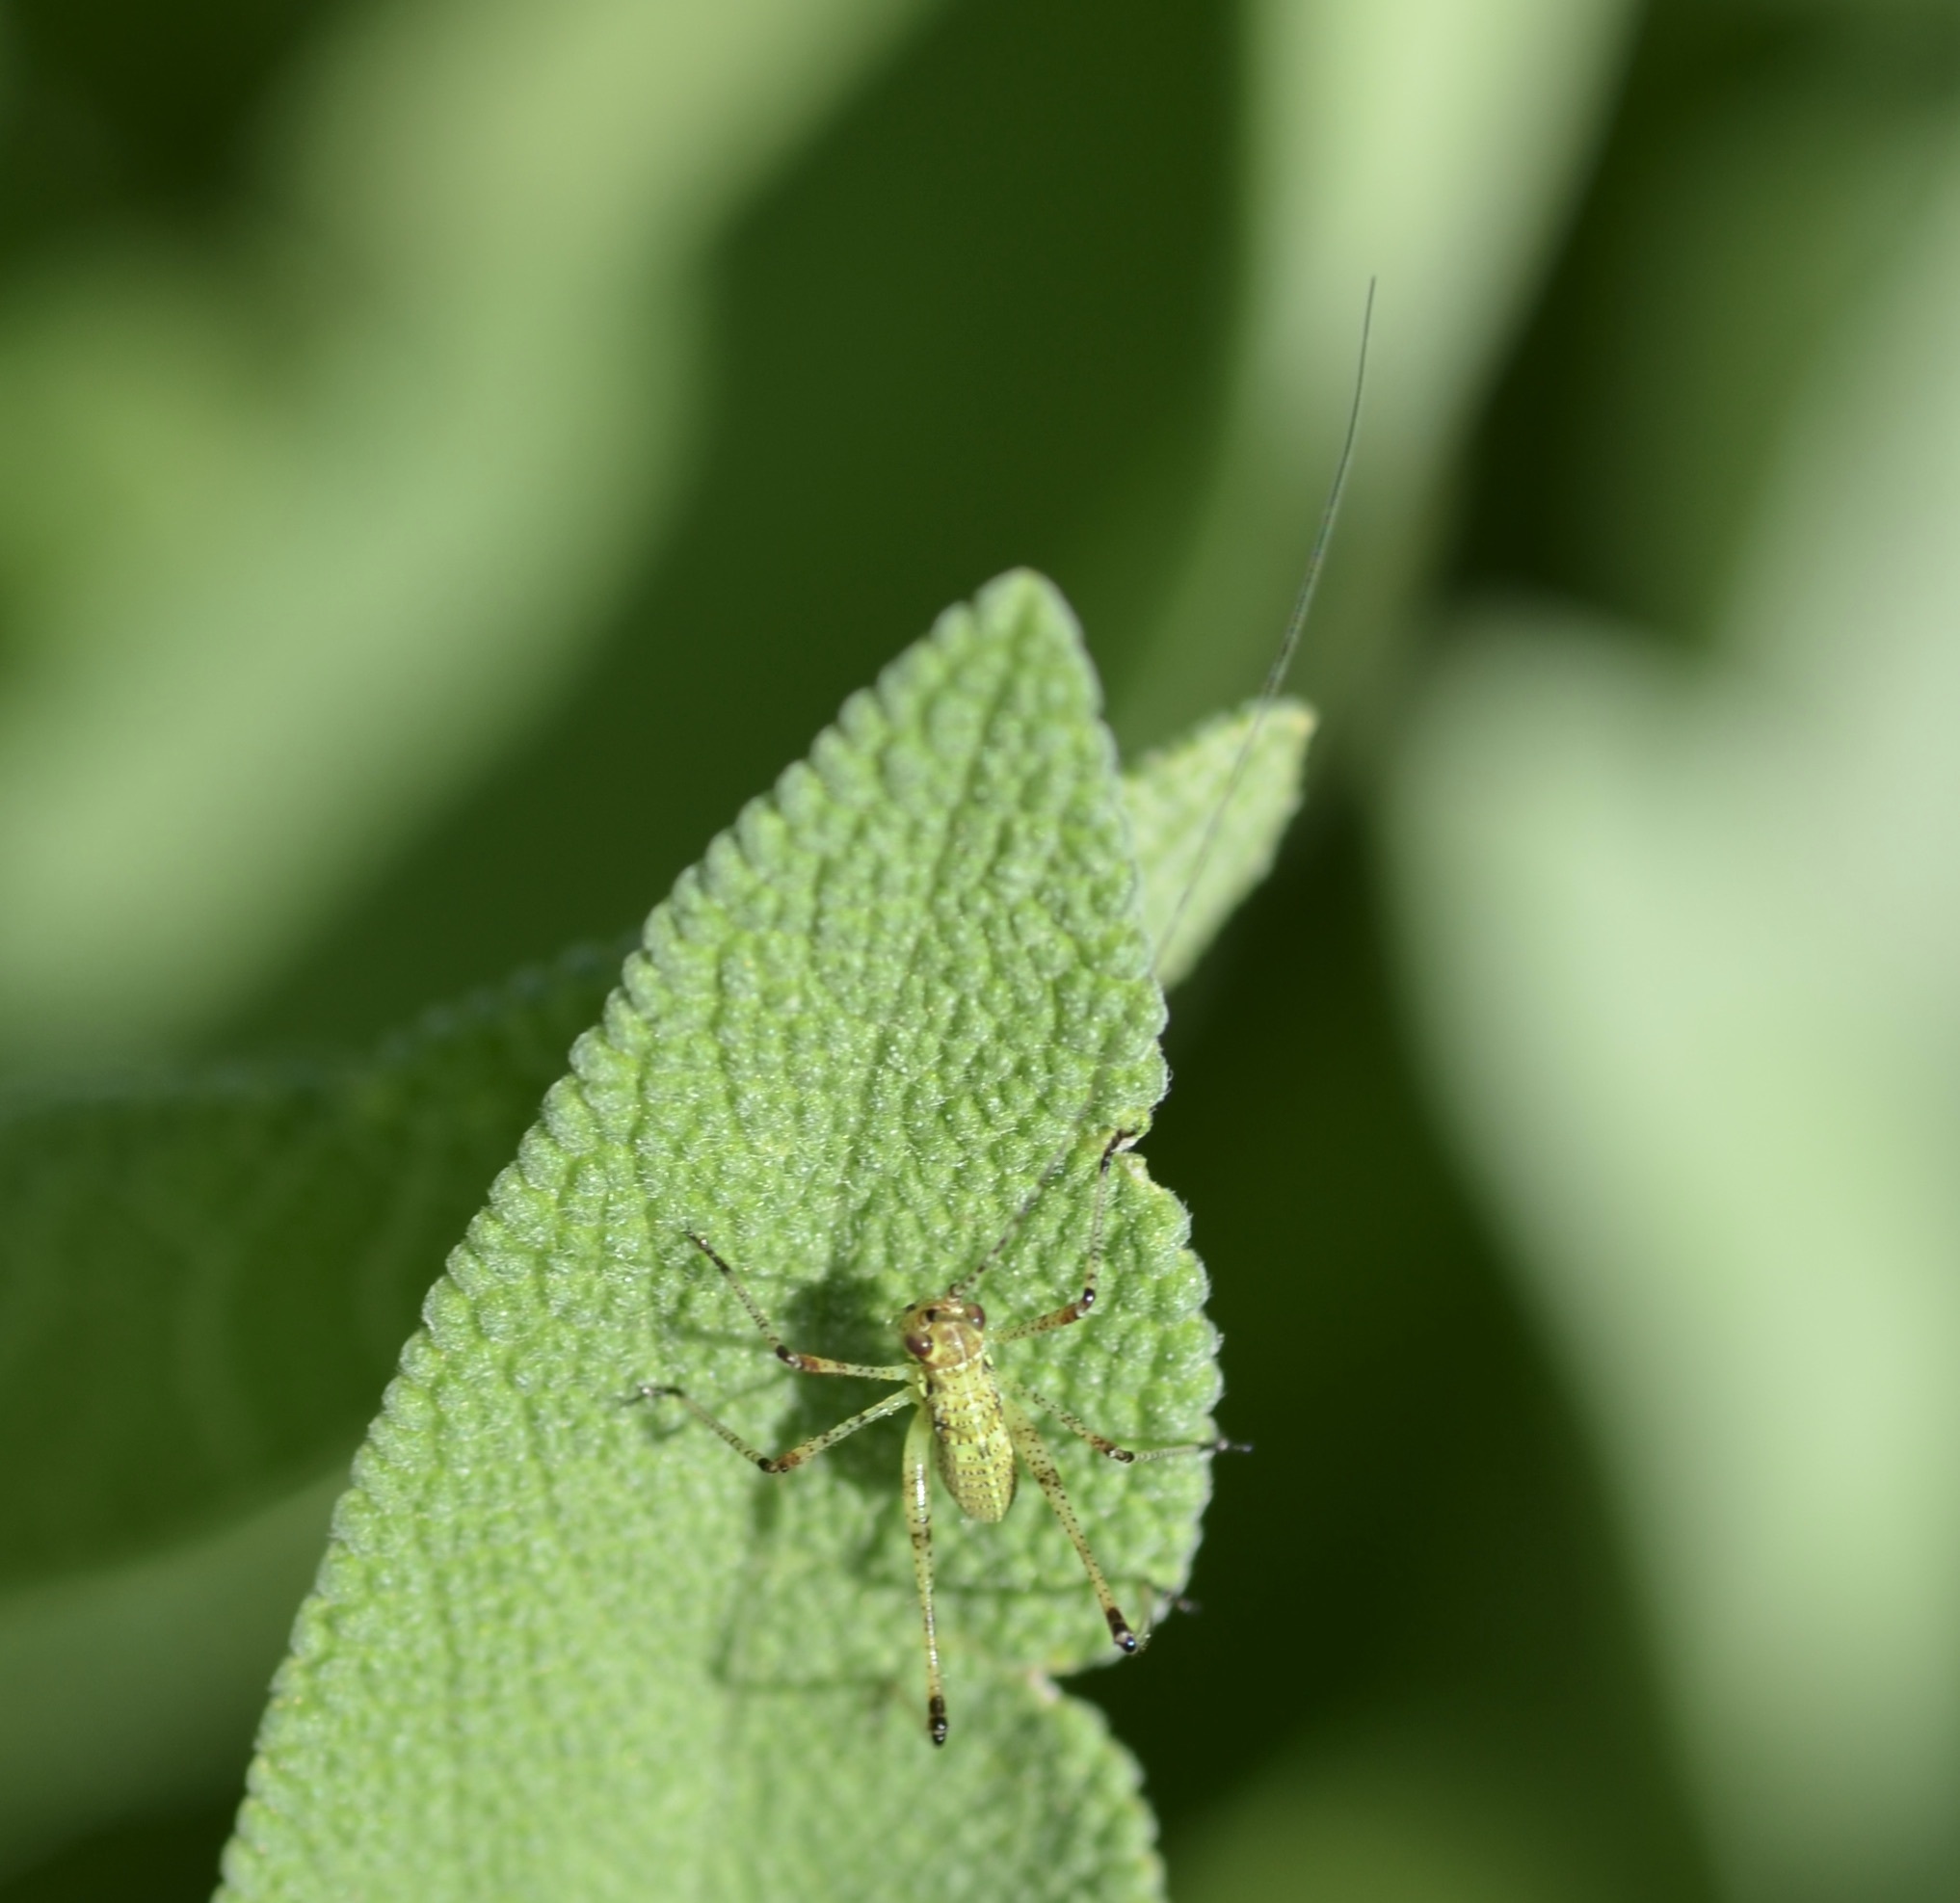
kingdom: Animalia
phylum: Arthropoda
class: Insecta
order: Orthoptera
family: Tettigoniidae
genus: Phaneroptera
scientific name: Phaneroptera nana
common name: Southern sickle bush-cricket
